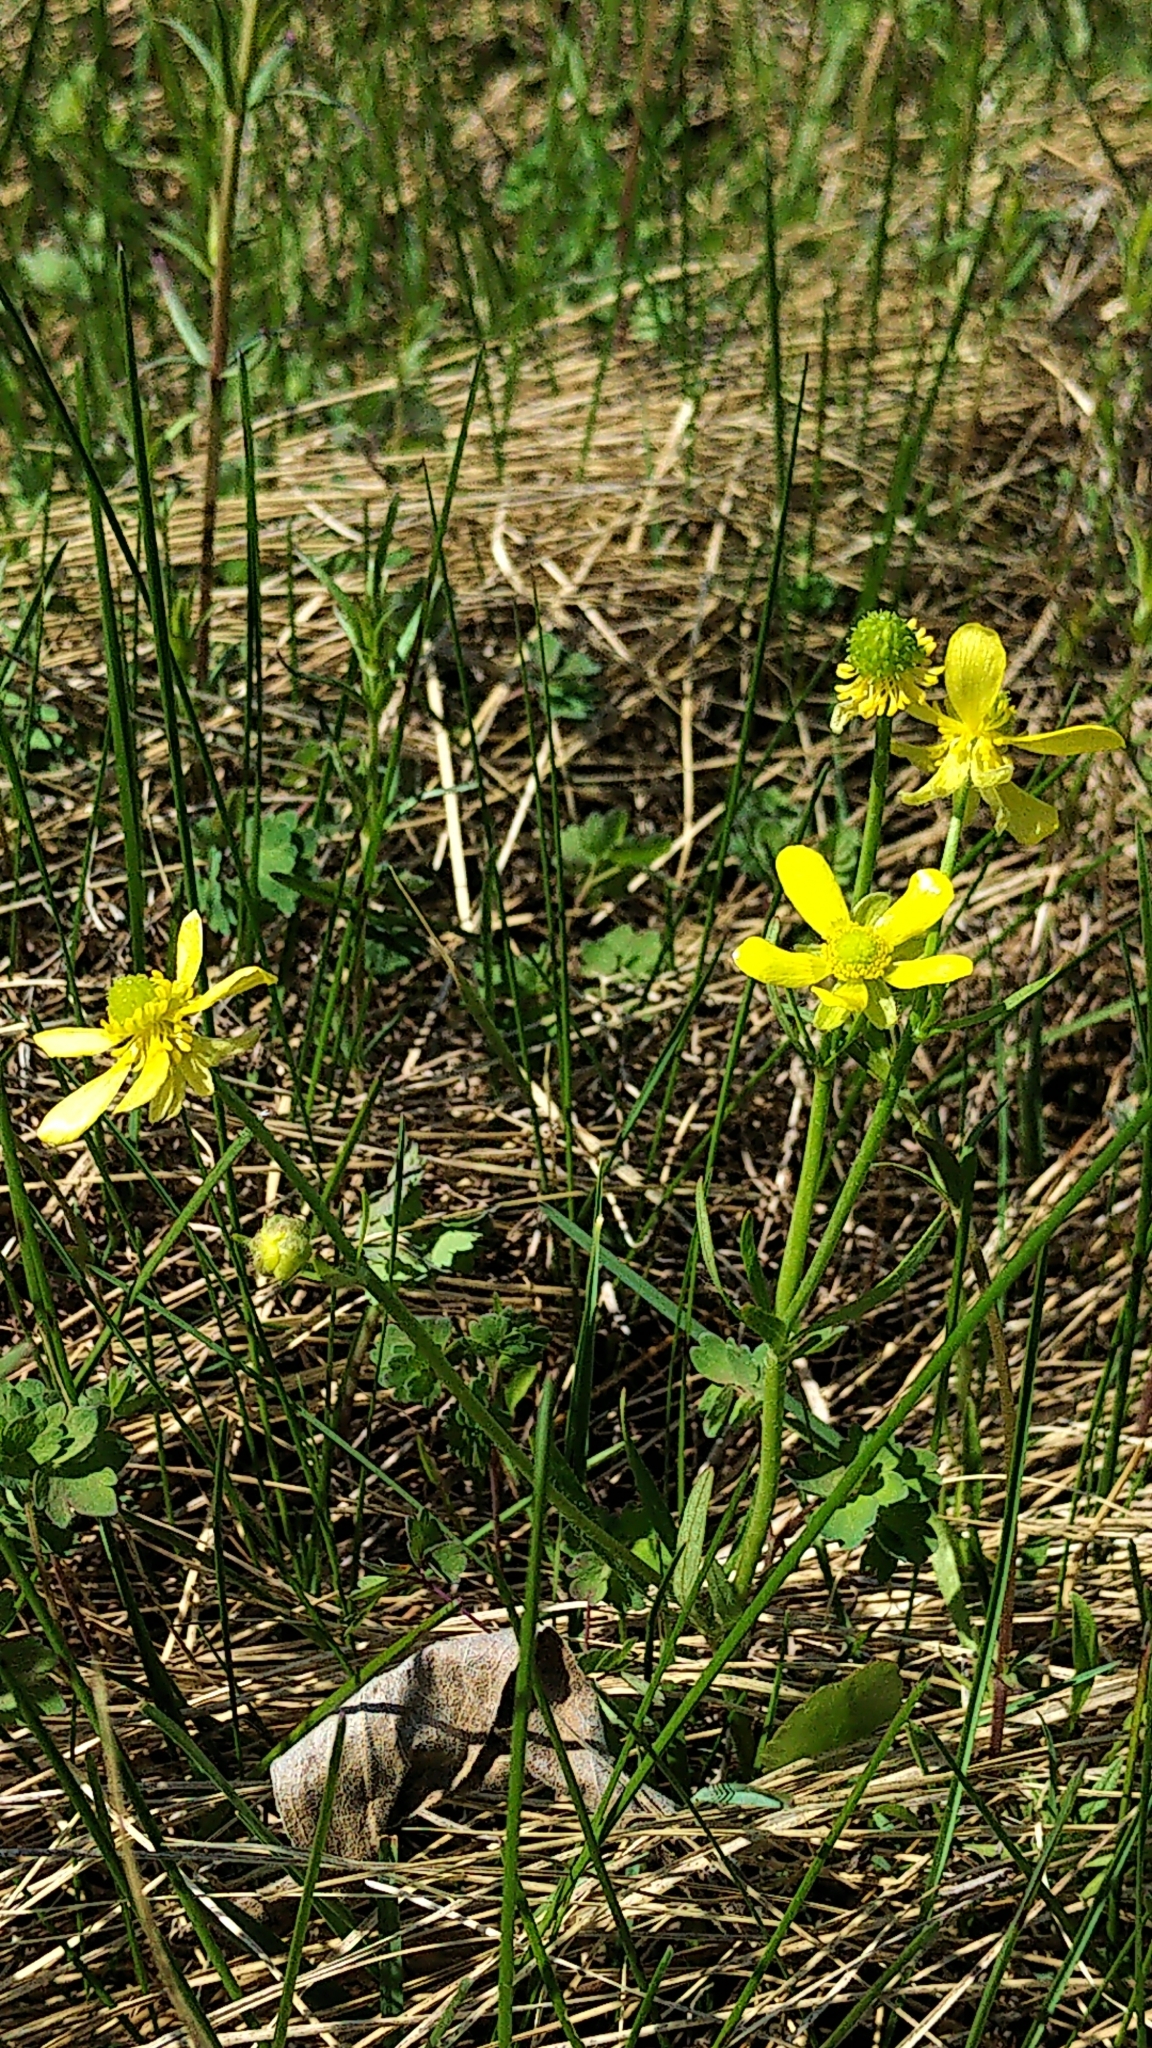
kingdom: Plantae
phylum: Tracheophyta
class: Magnoliopsida
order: Ranunculales
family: Ranunculaceae
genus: Ranunculus
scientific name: Ranunculus rhomboideus
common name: Prairie buttercup
